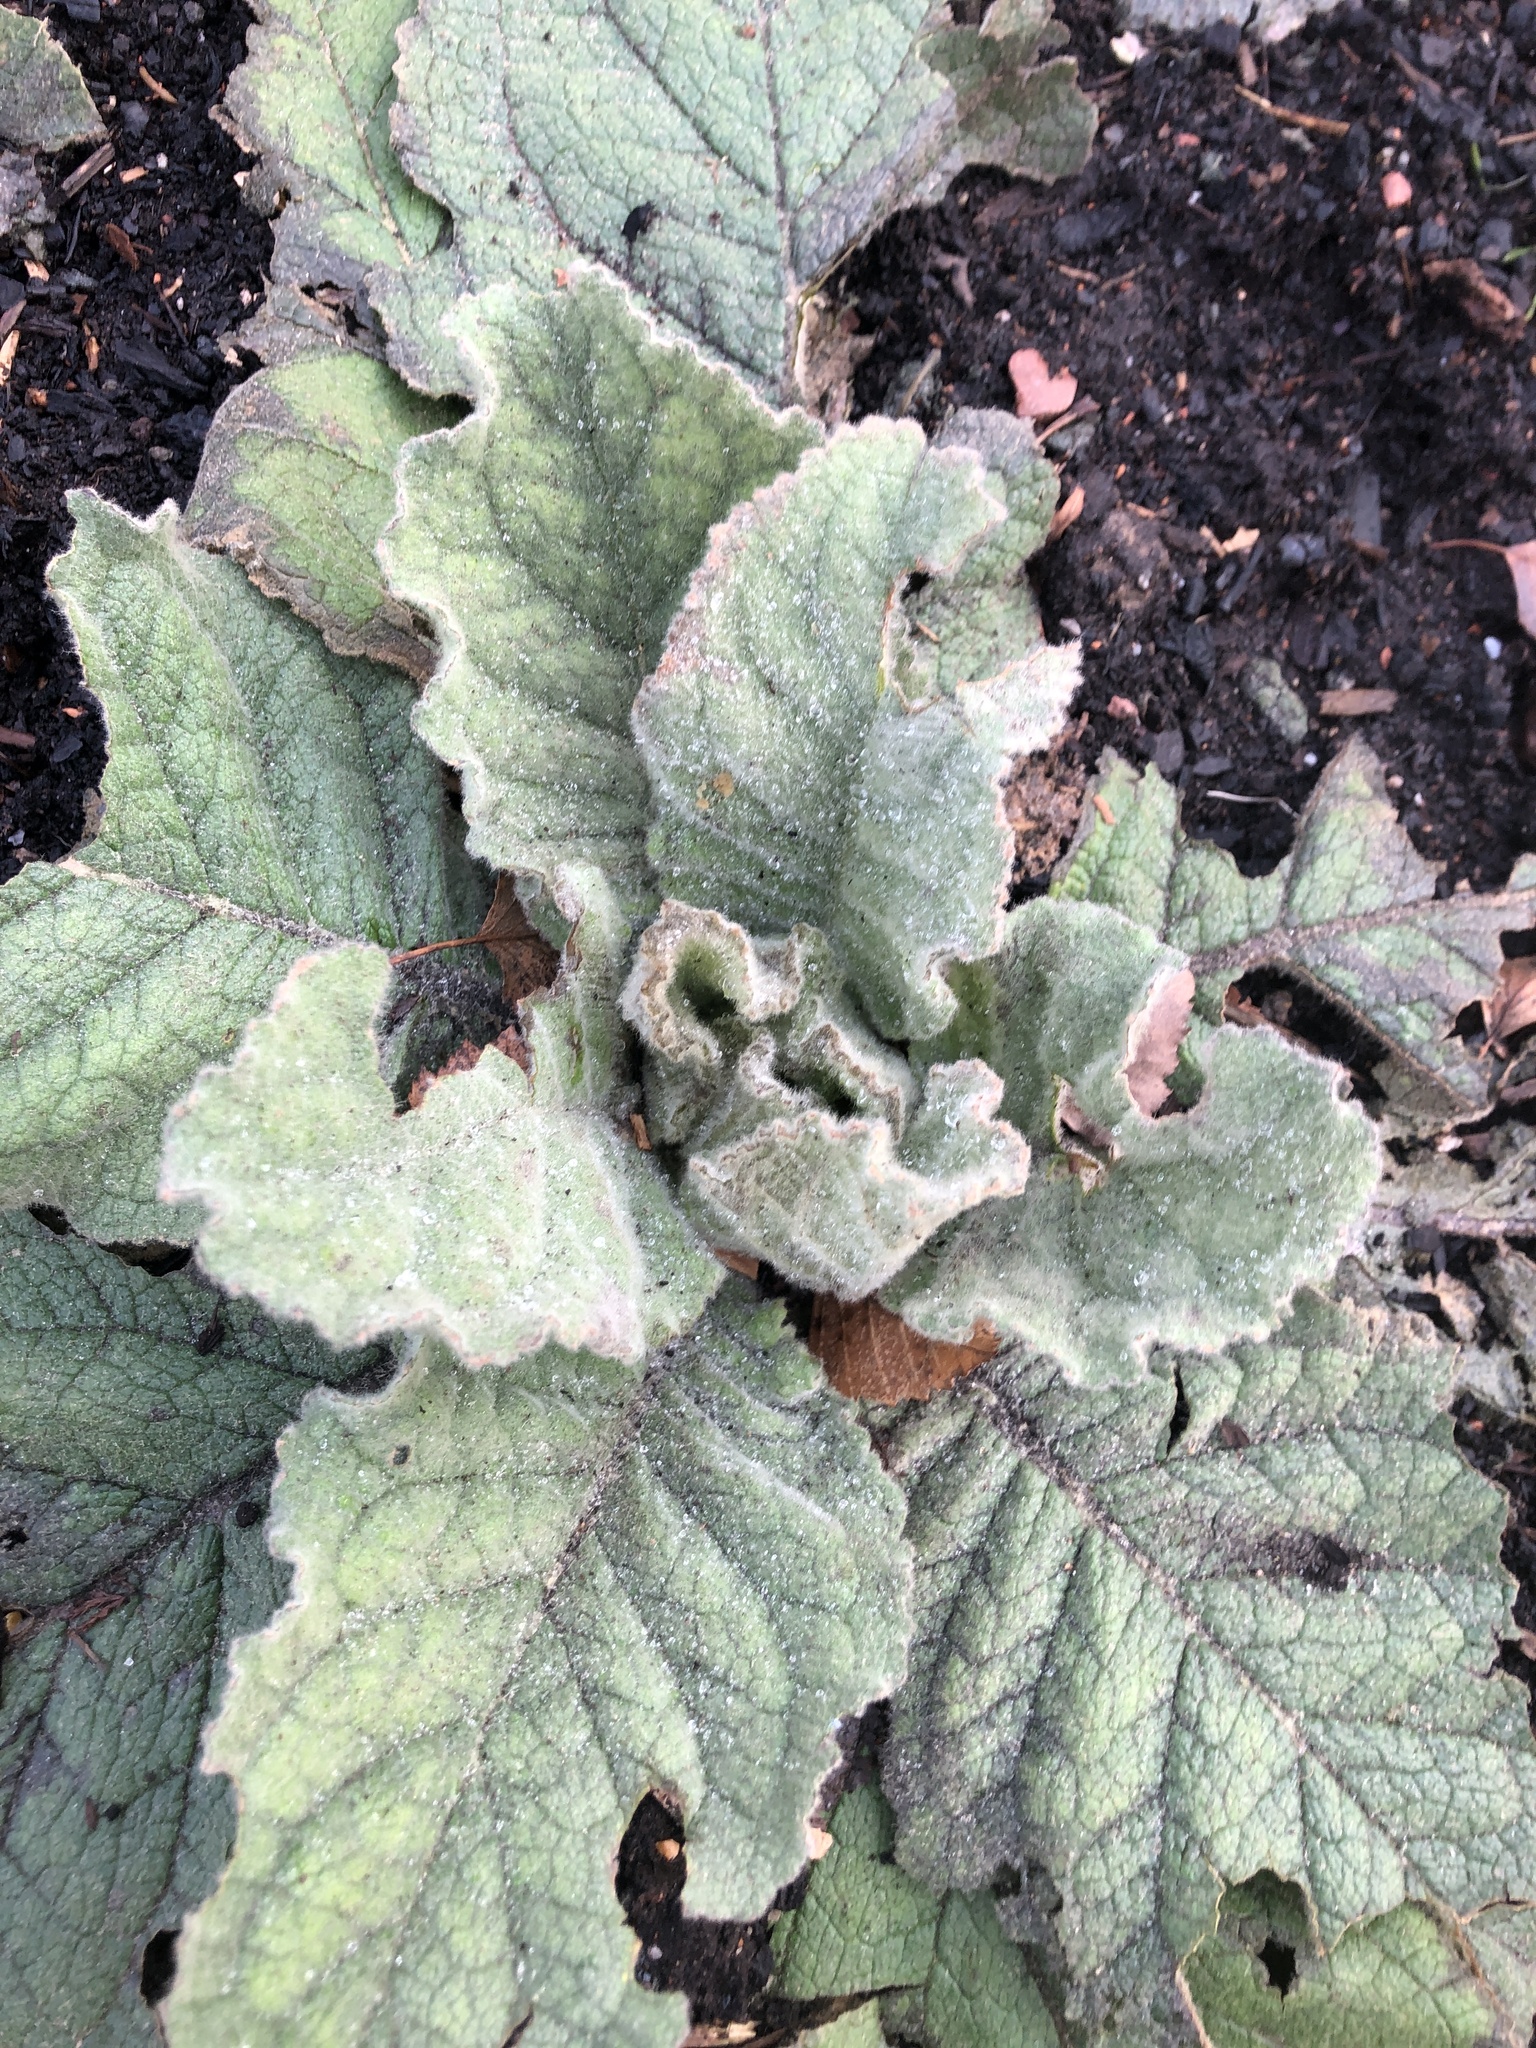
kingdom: Plantae
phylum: Tracheophyta
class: Magnoliopsida
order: Lamiales
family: Scrophulariaceae
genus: Verbascum
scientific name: Verbascum thapsus
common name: Common mullein
